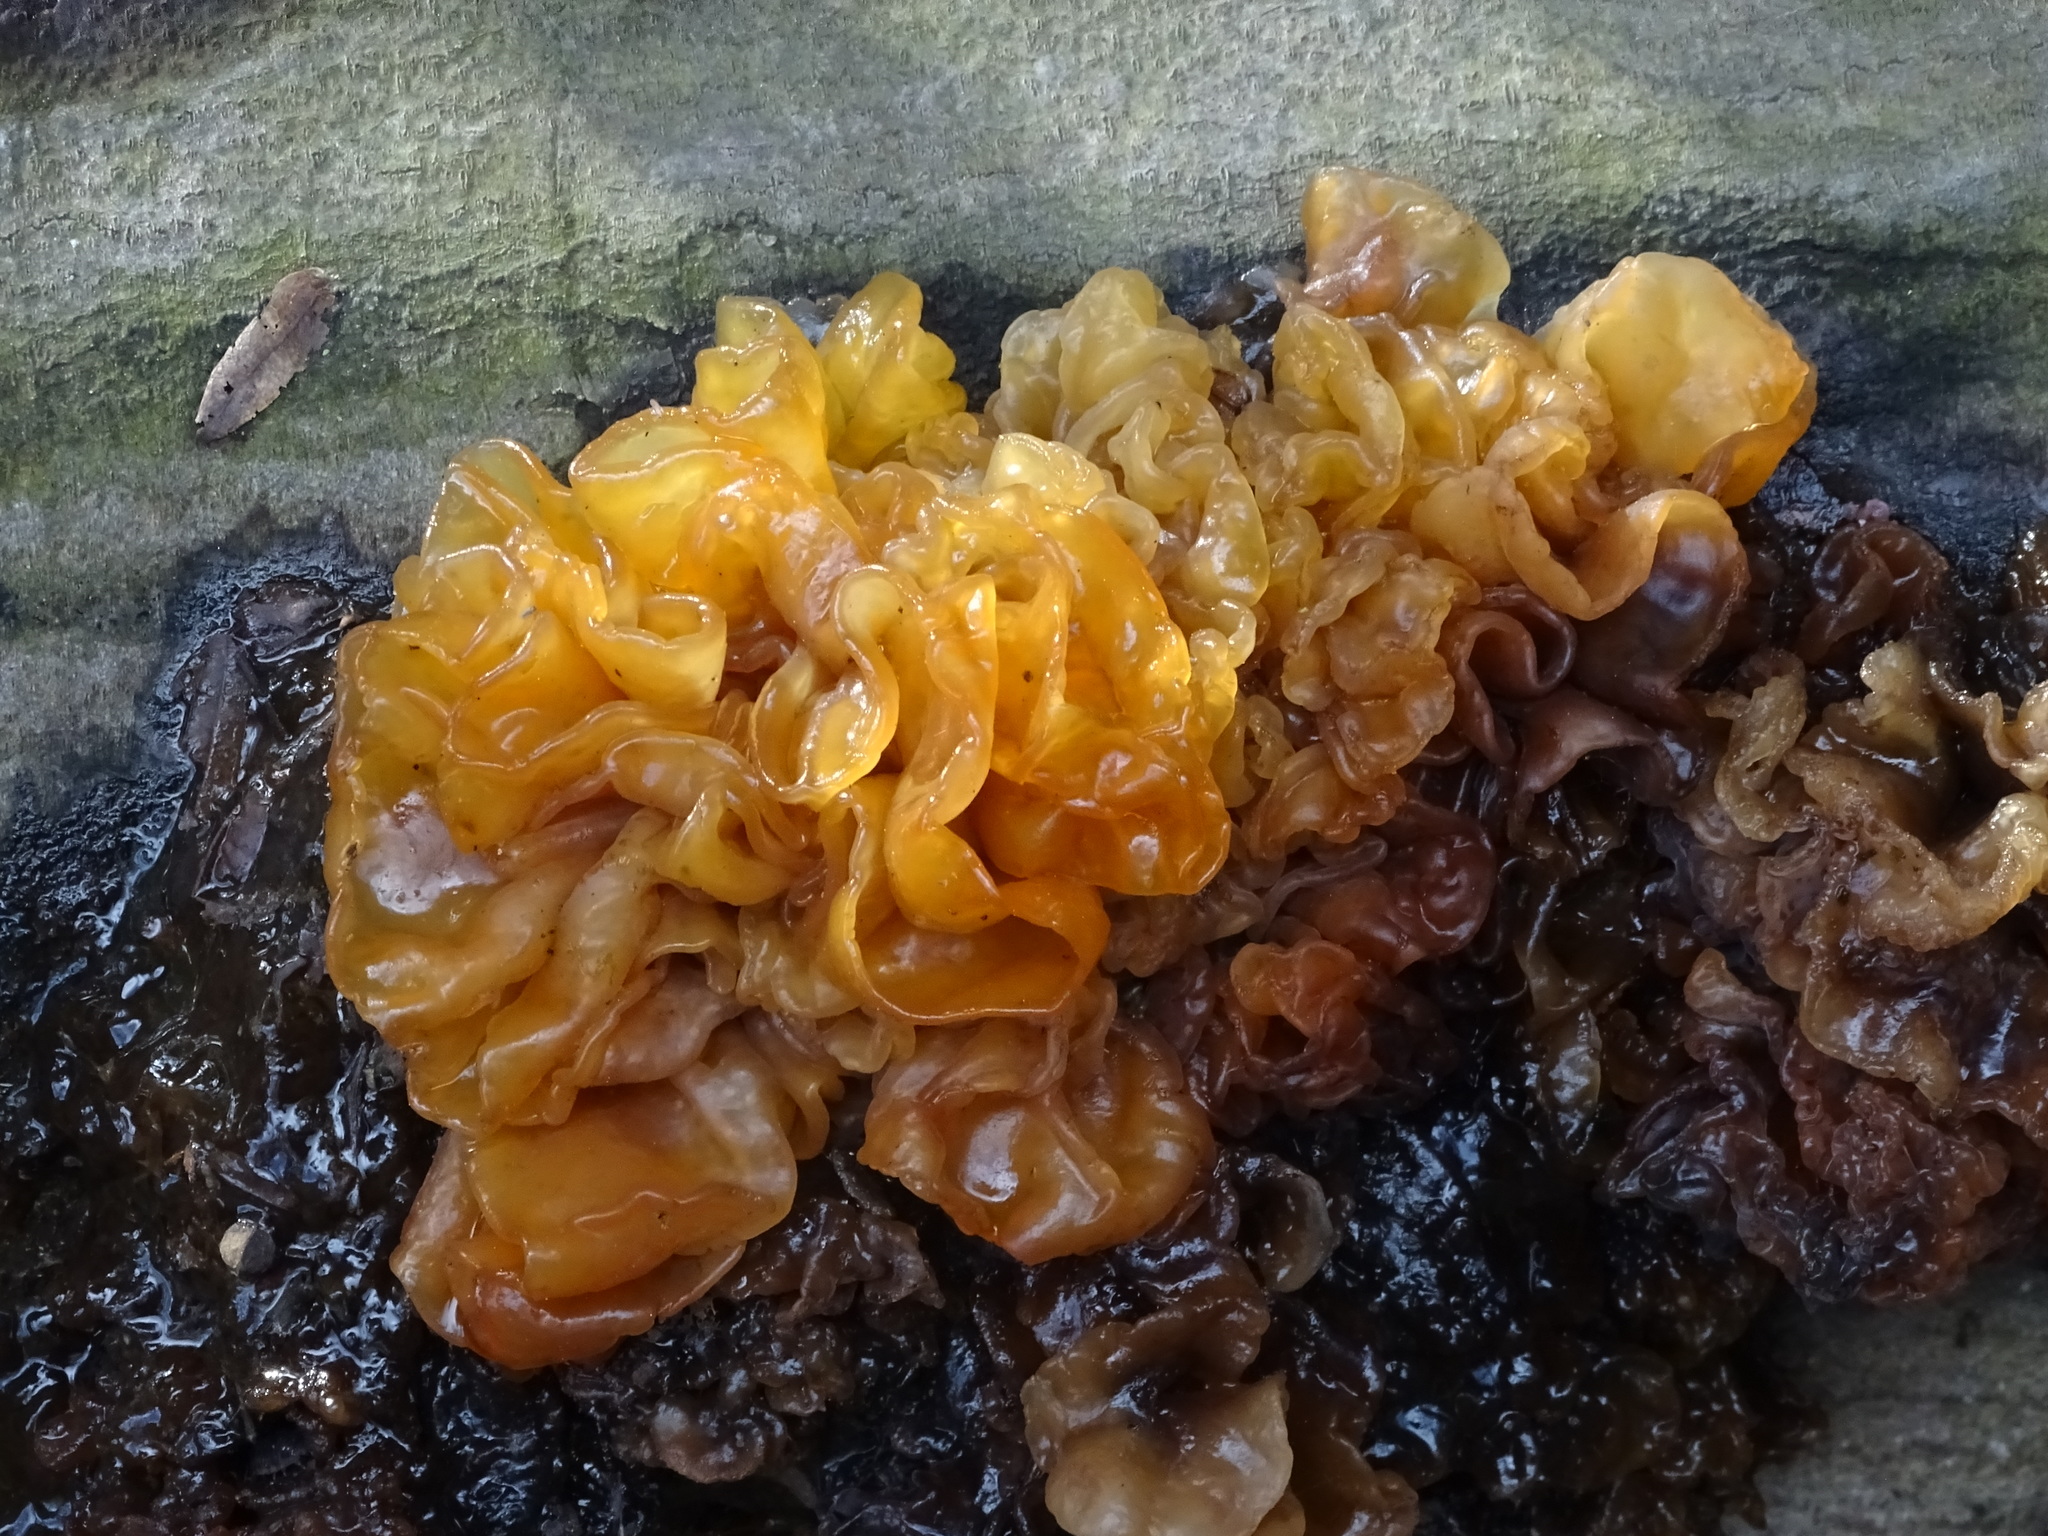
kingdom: Fungi
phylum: Basidiomycota
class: Tremellomycetes
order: Tremellales
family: Tremellaceae
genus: Phaeotremella
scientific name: Phaeotremella foliacea
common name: Leafy brain
